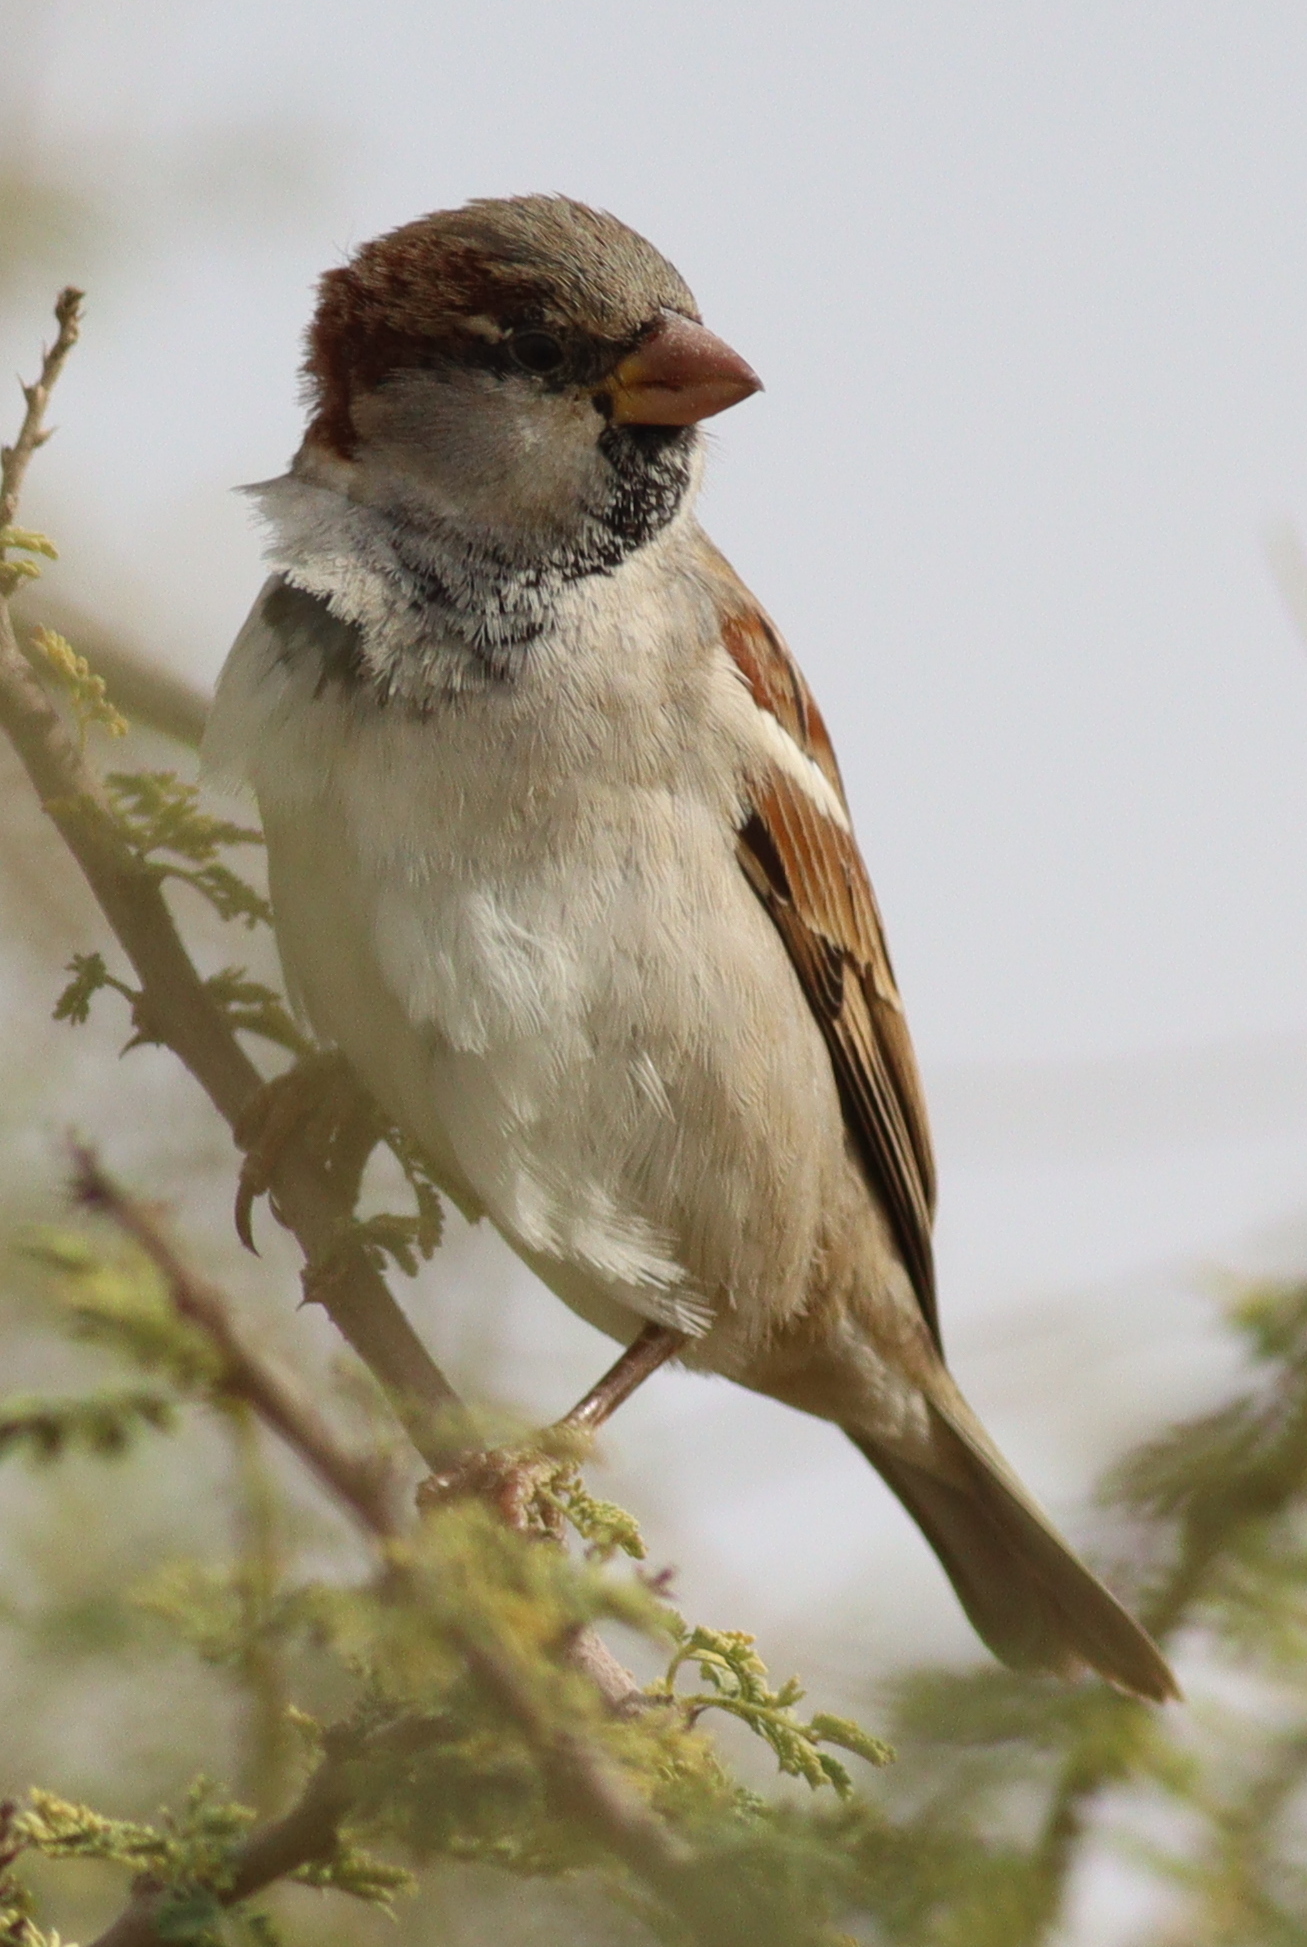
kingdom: Animalia
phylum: Chordata
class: Aves
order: Passeriformes
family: Passeridae
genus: Passer
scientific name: Passer domesticus
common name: House sparrow
